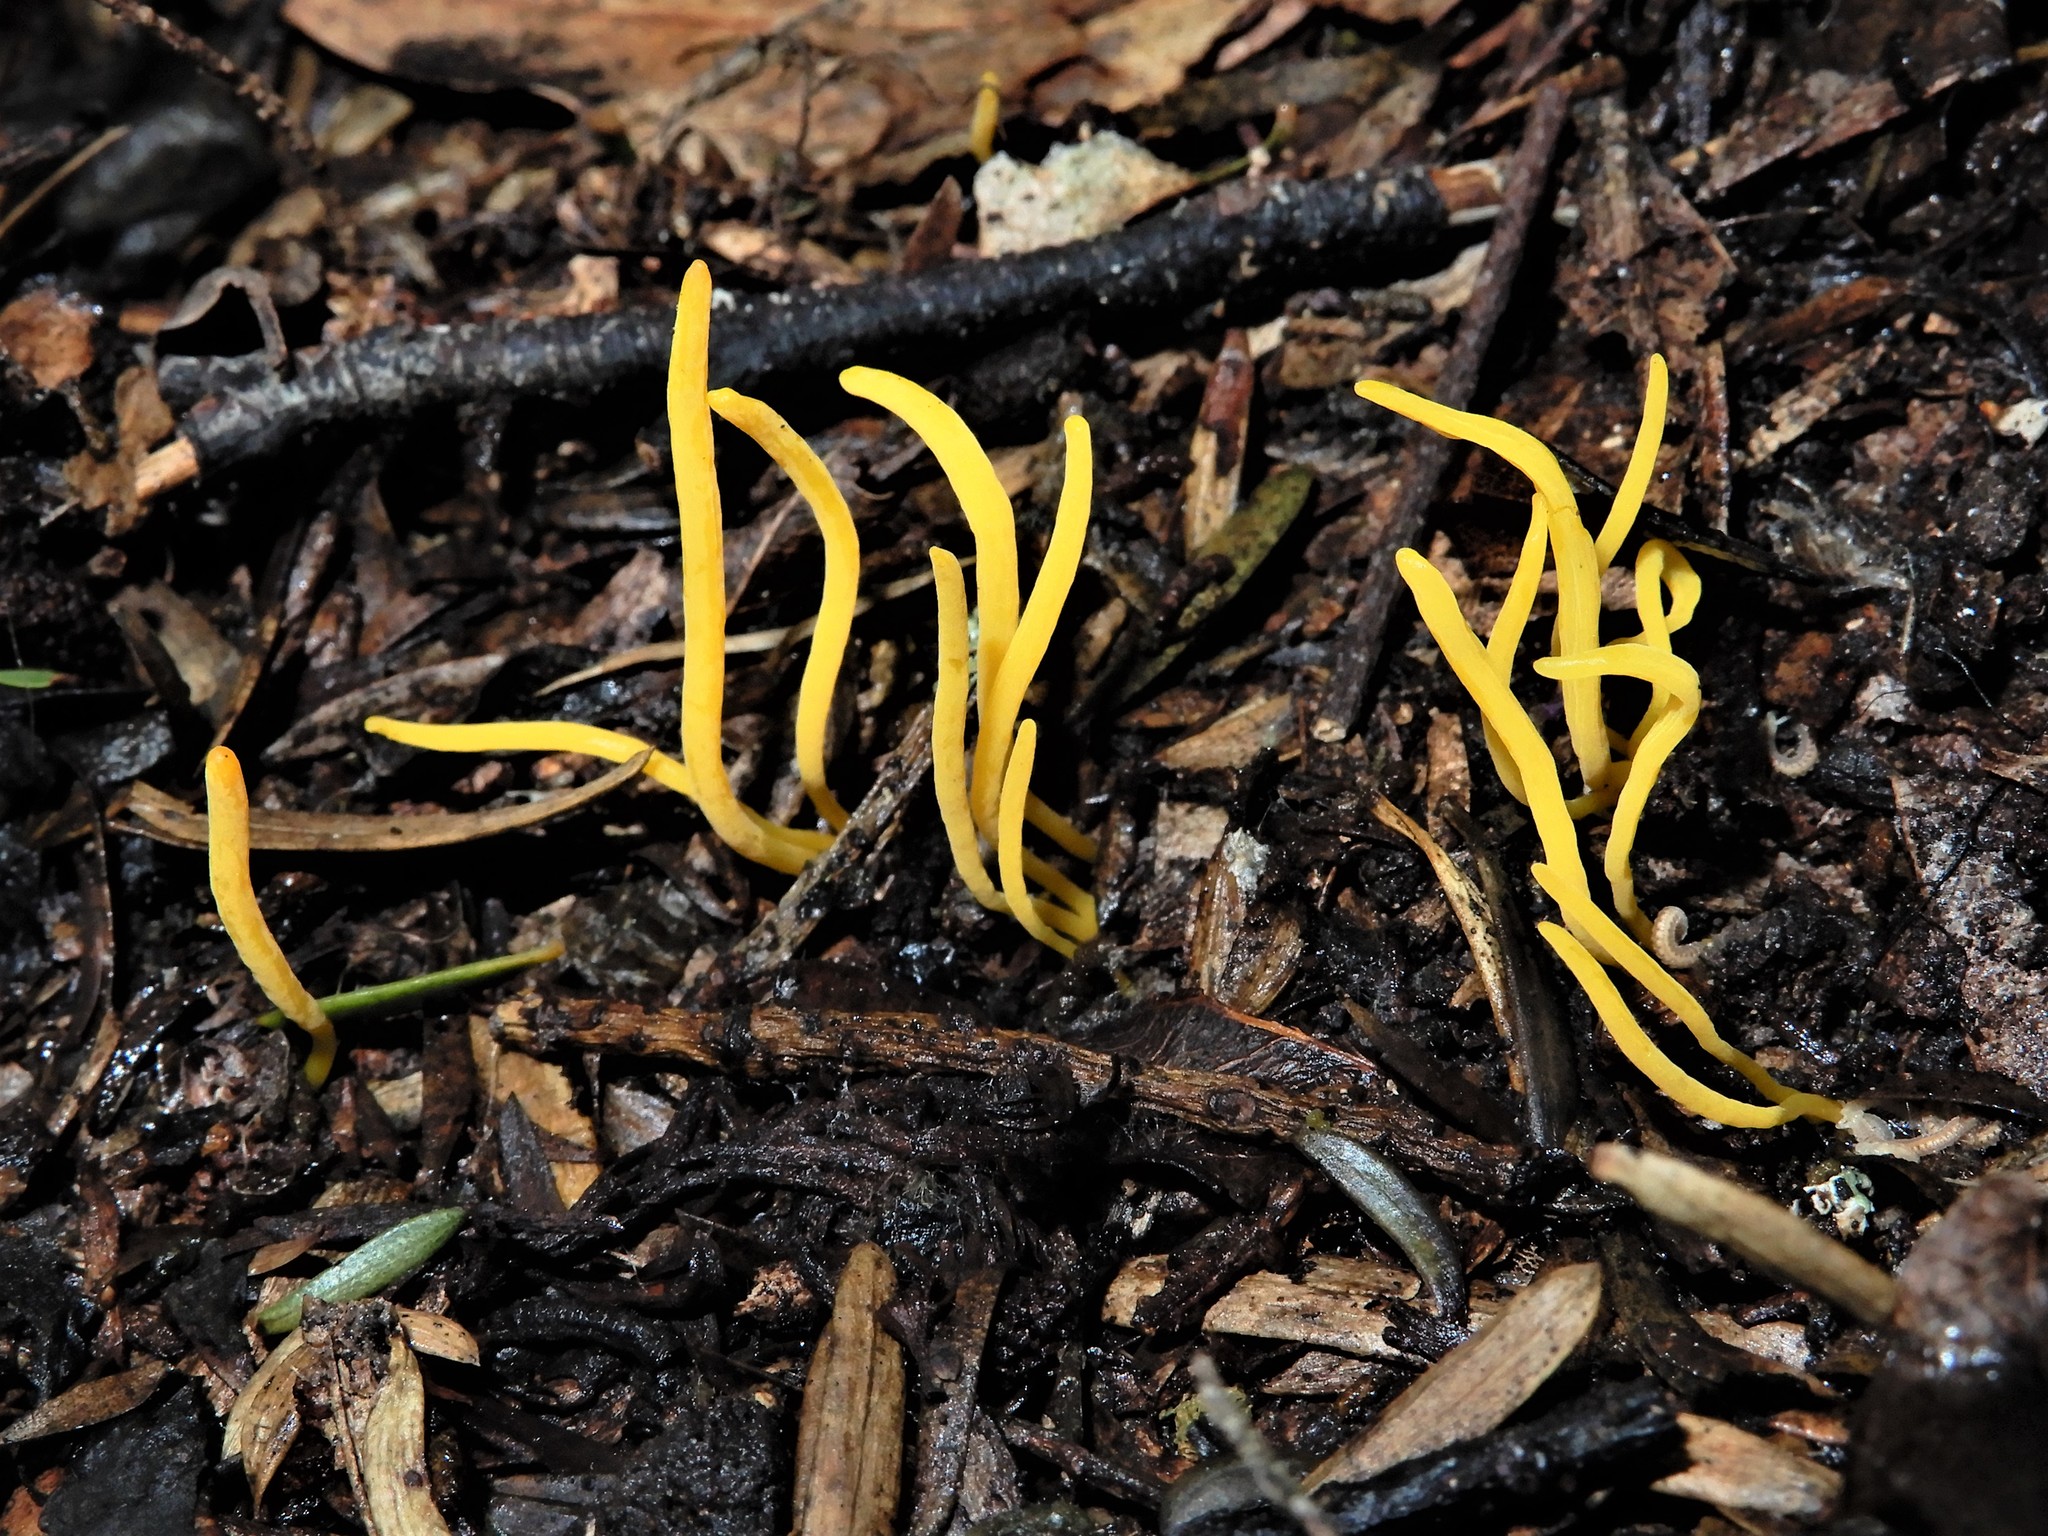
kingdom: Fungi
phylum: Basidiomycota
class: Agaricomycetes
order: Agaricales
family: Clavariaceae
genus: Clavulinopsis
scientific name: Clavulinopsis antillarum
